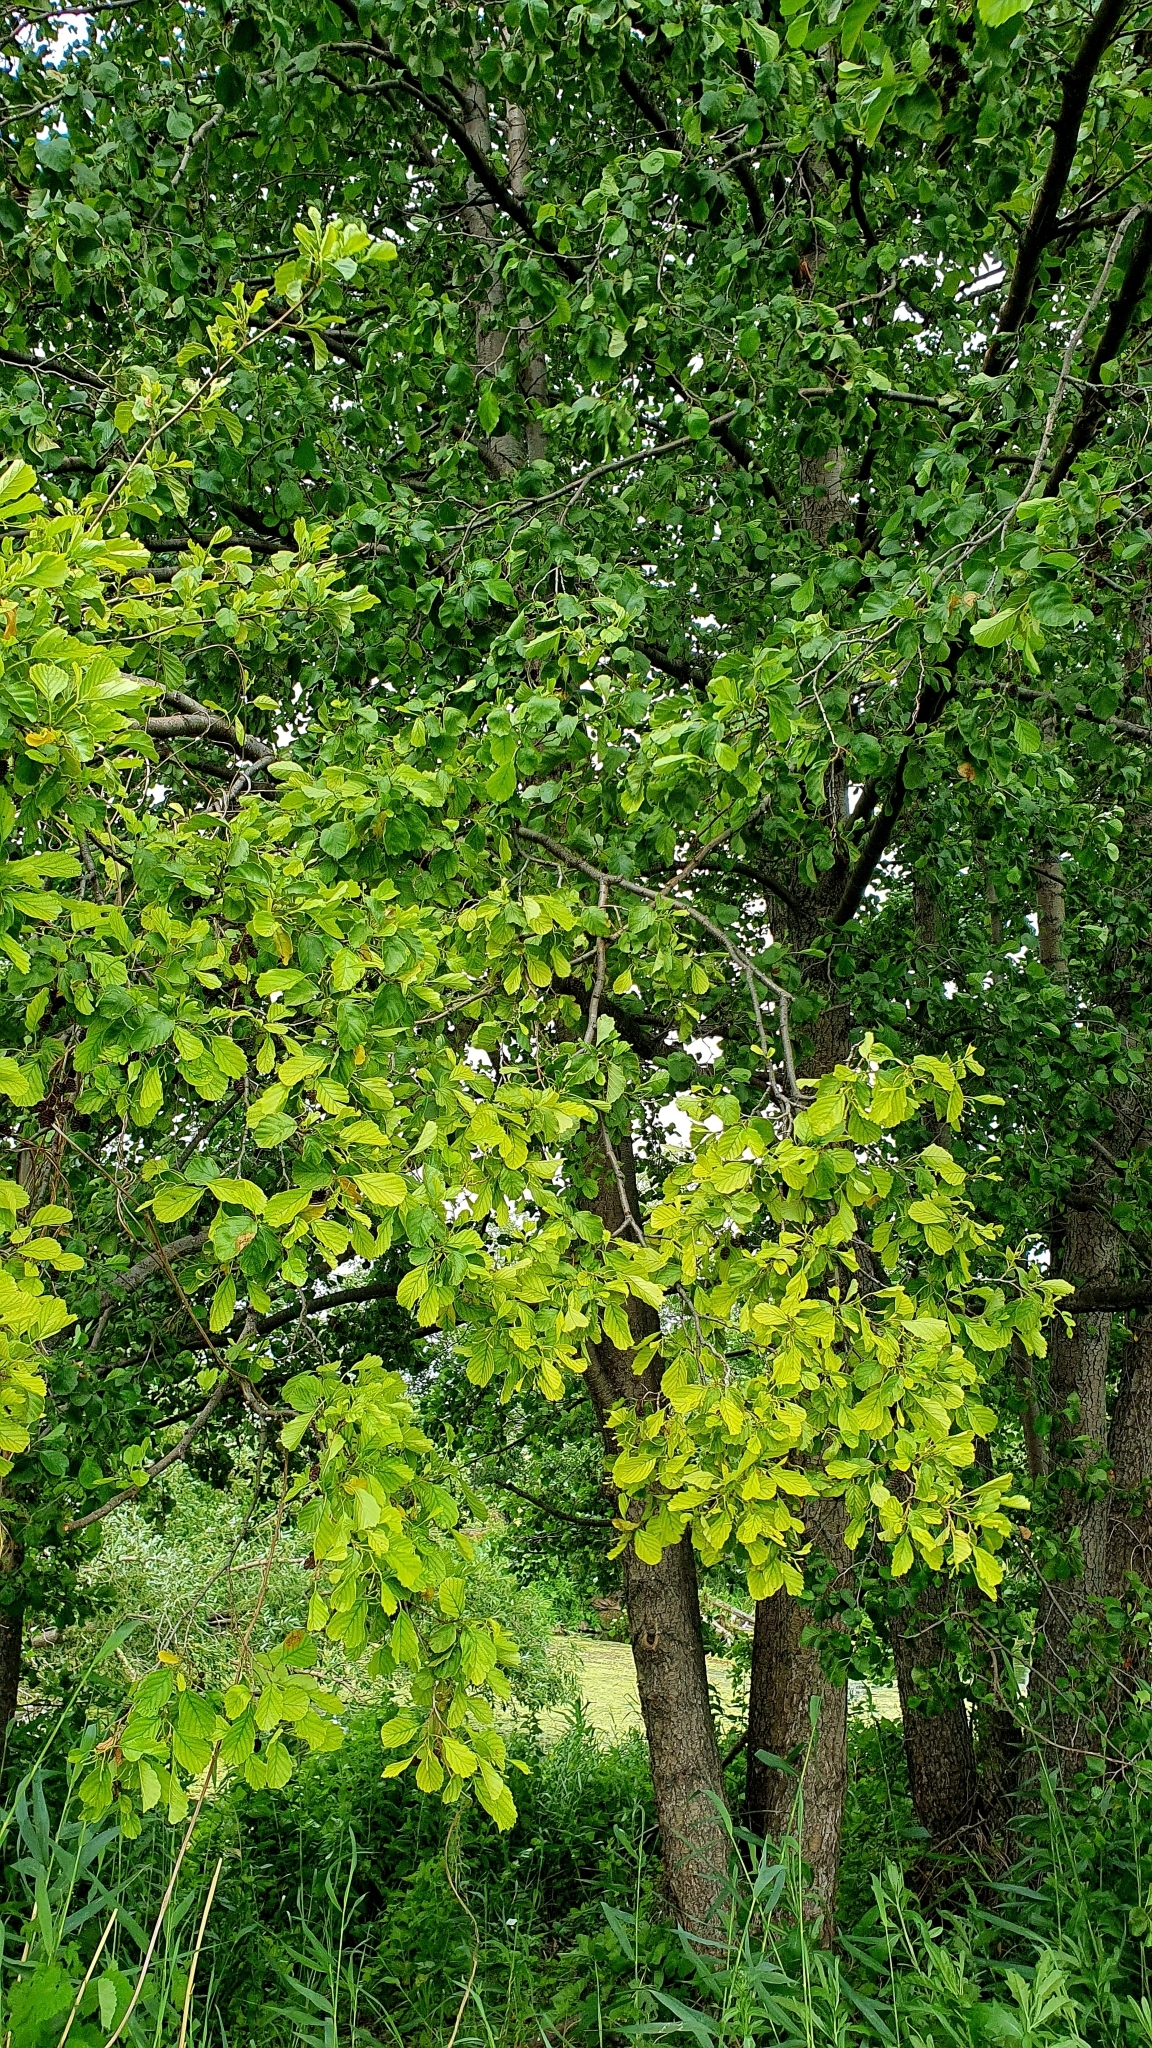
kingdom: Plantae
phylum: Tracheophyta
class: Magnoliopsida
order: Fagales
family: Betulaceae
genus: Alnus
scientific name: Alnus glutinosa
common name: Black alder
